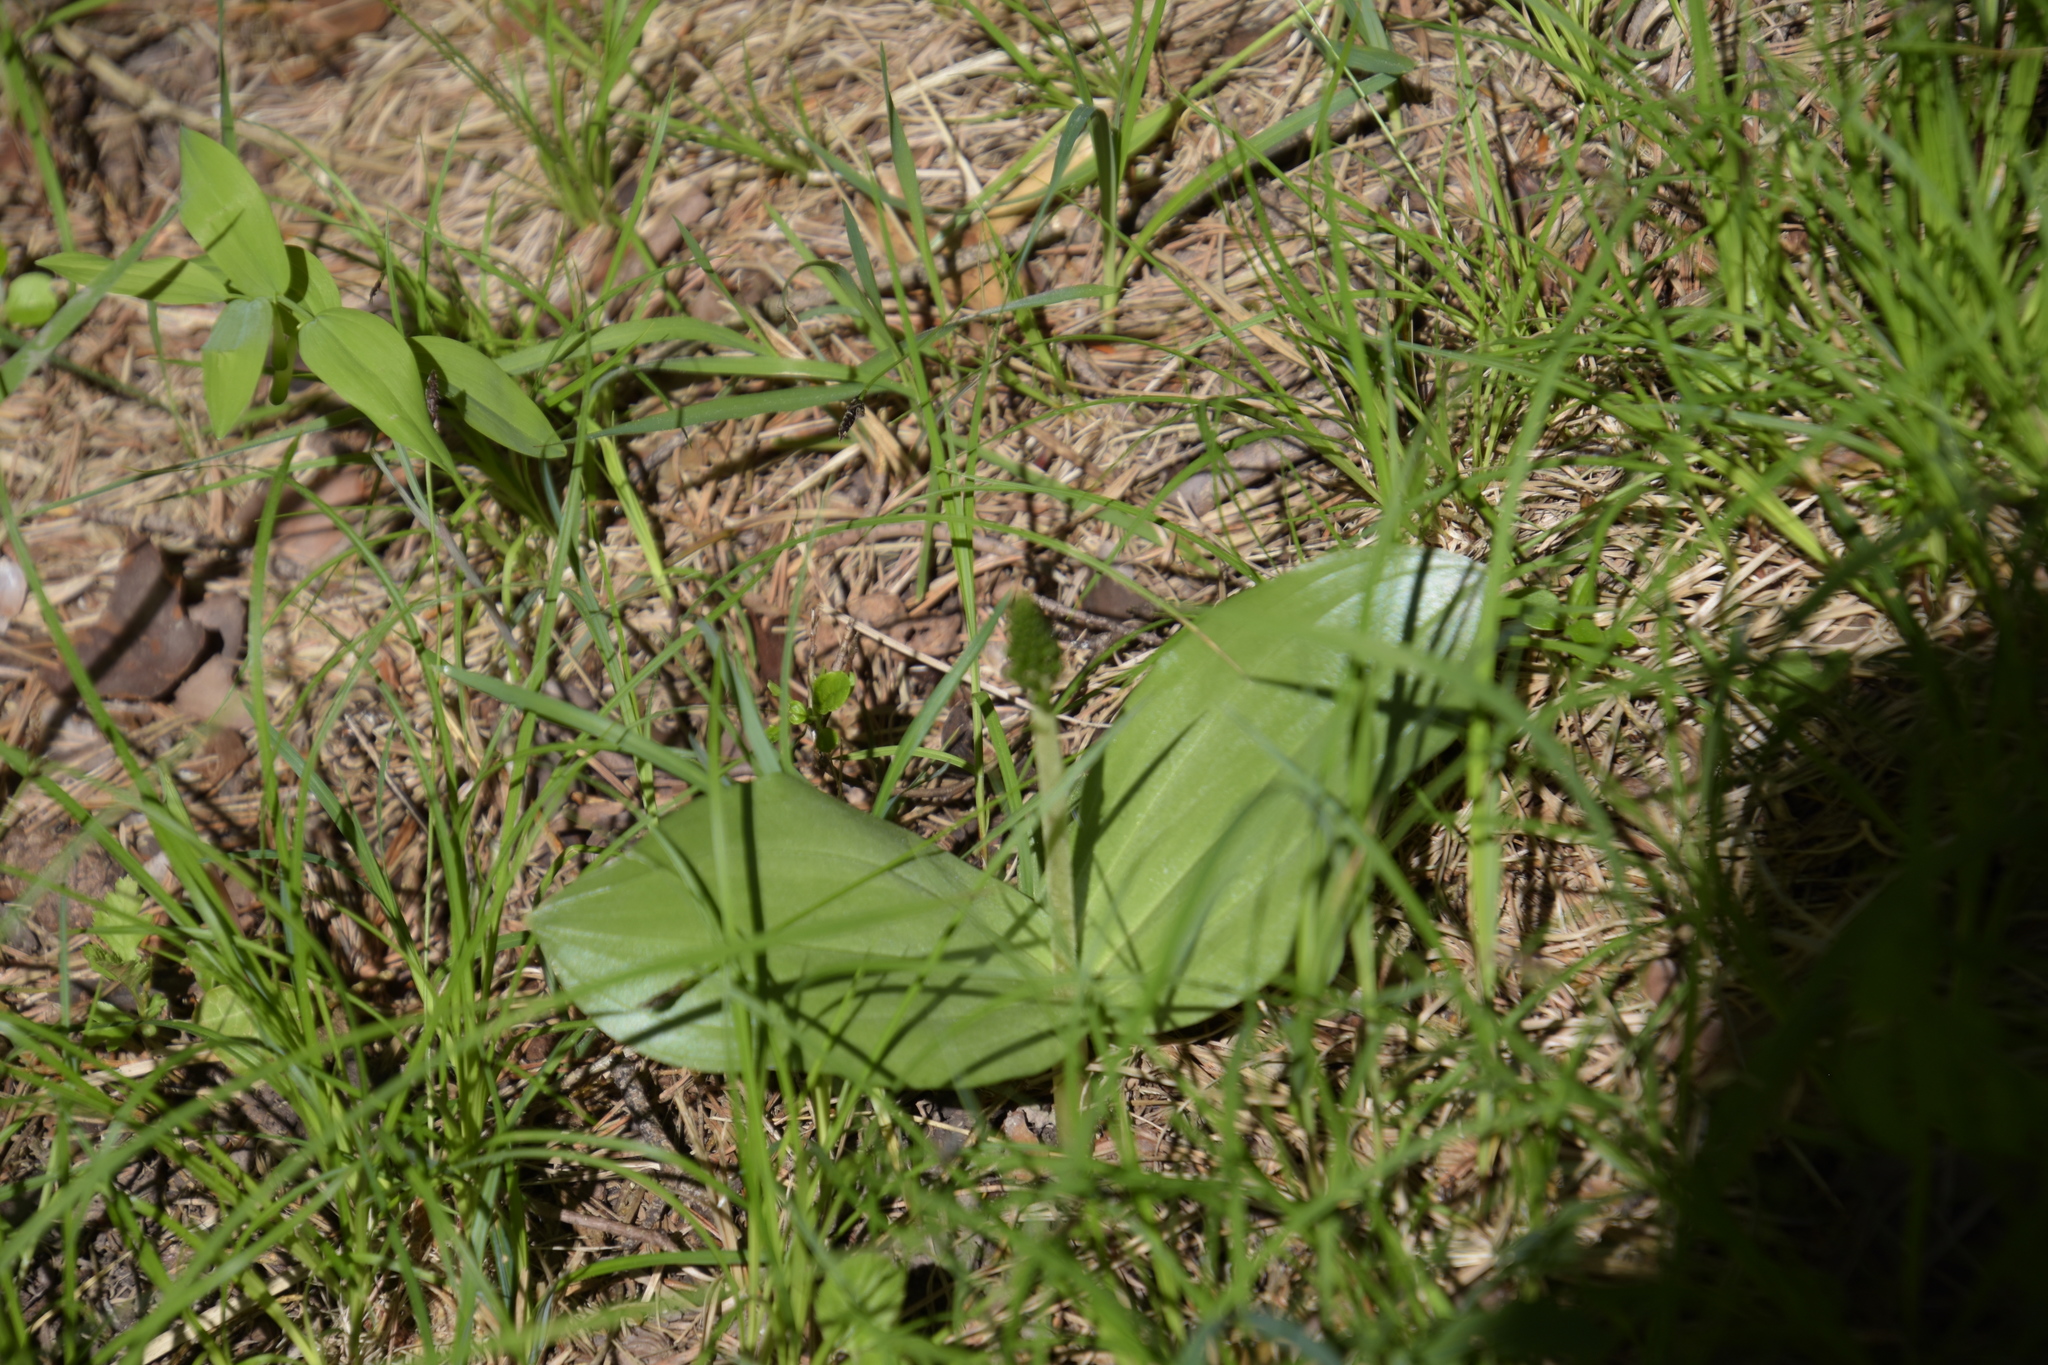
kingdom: Plantae
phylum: Tracheophyta
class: Liliopsida
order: Asparagales
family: Orchidaceae
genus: Neottia
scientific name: Neottia ovata
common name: Common twayblade
